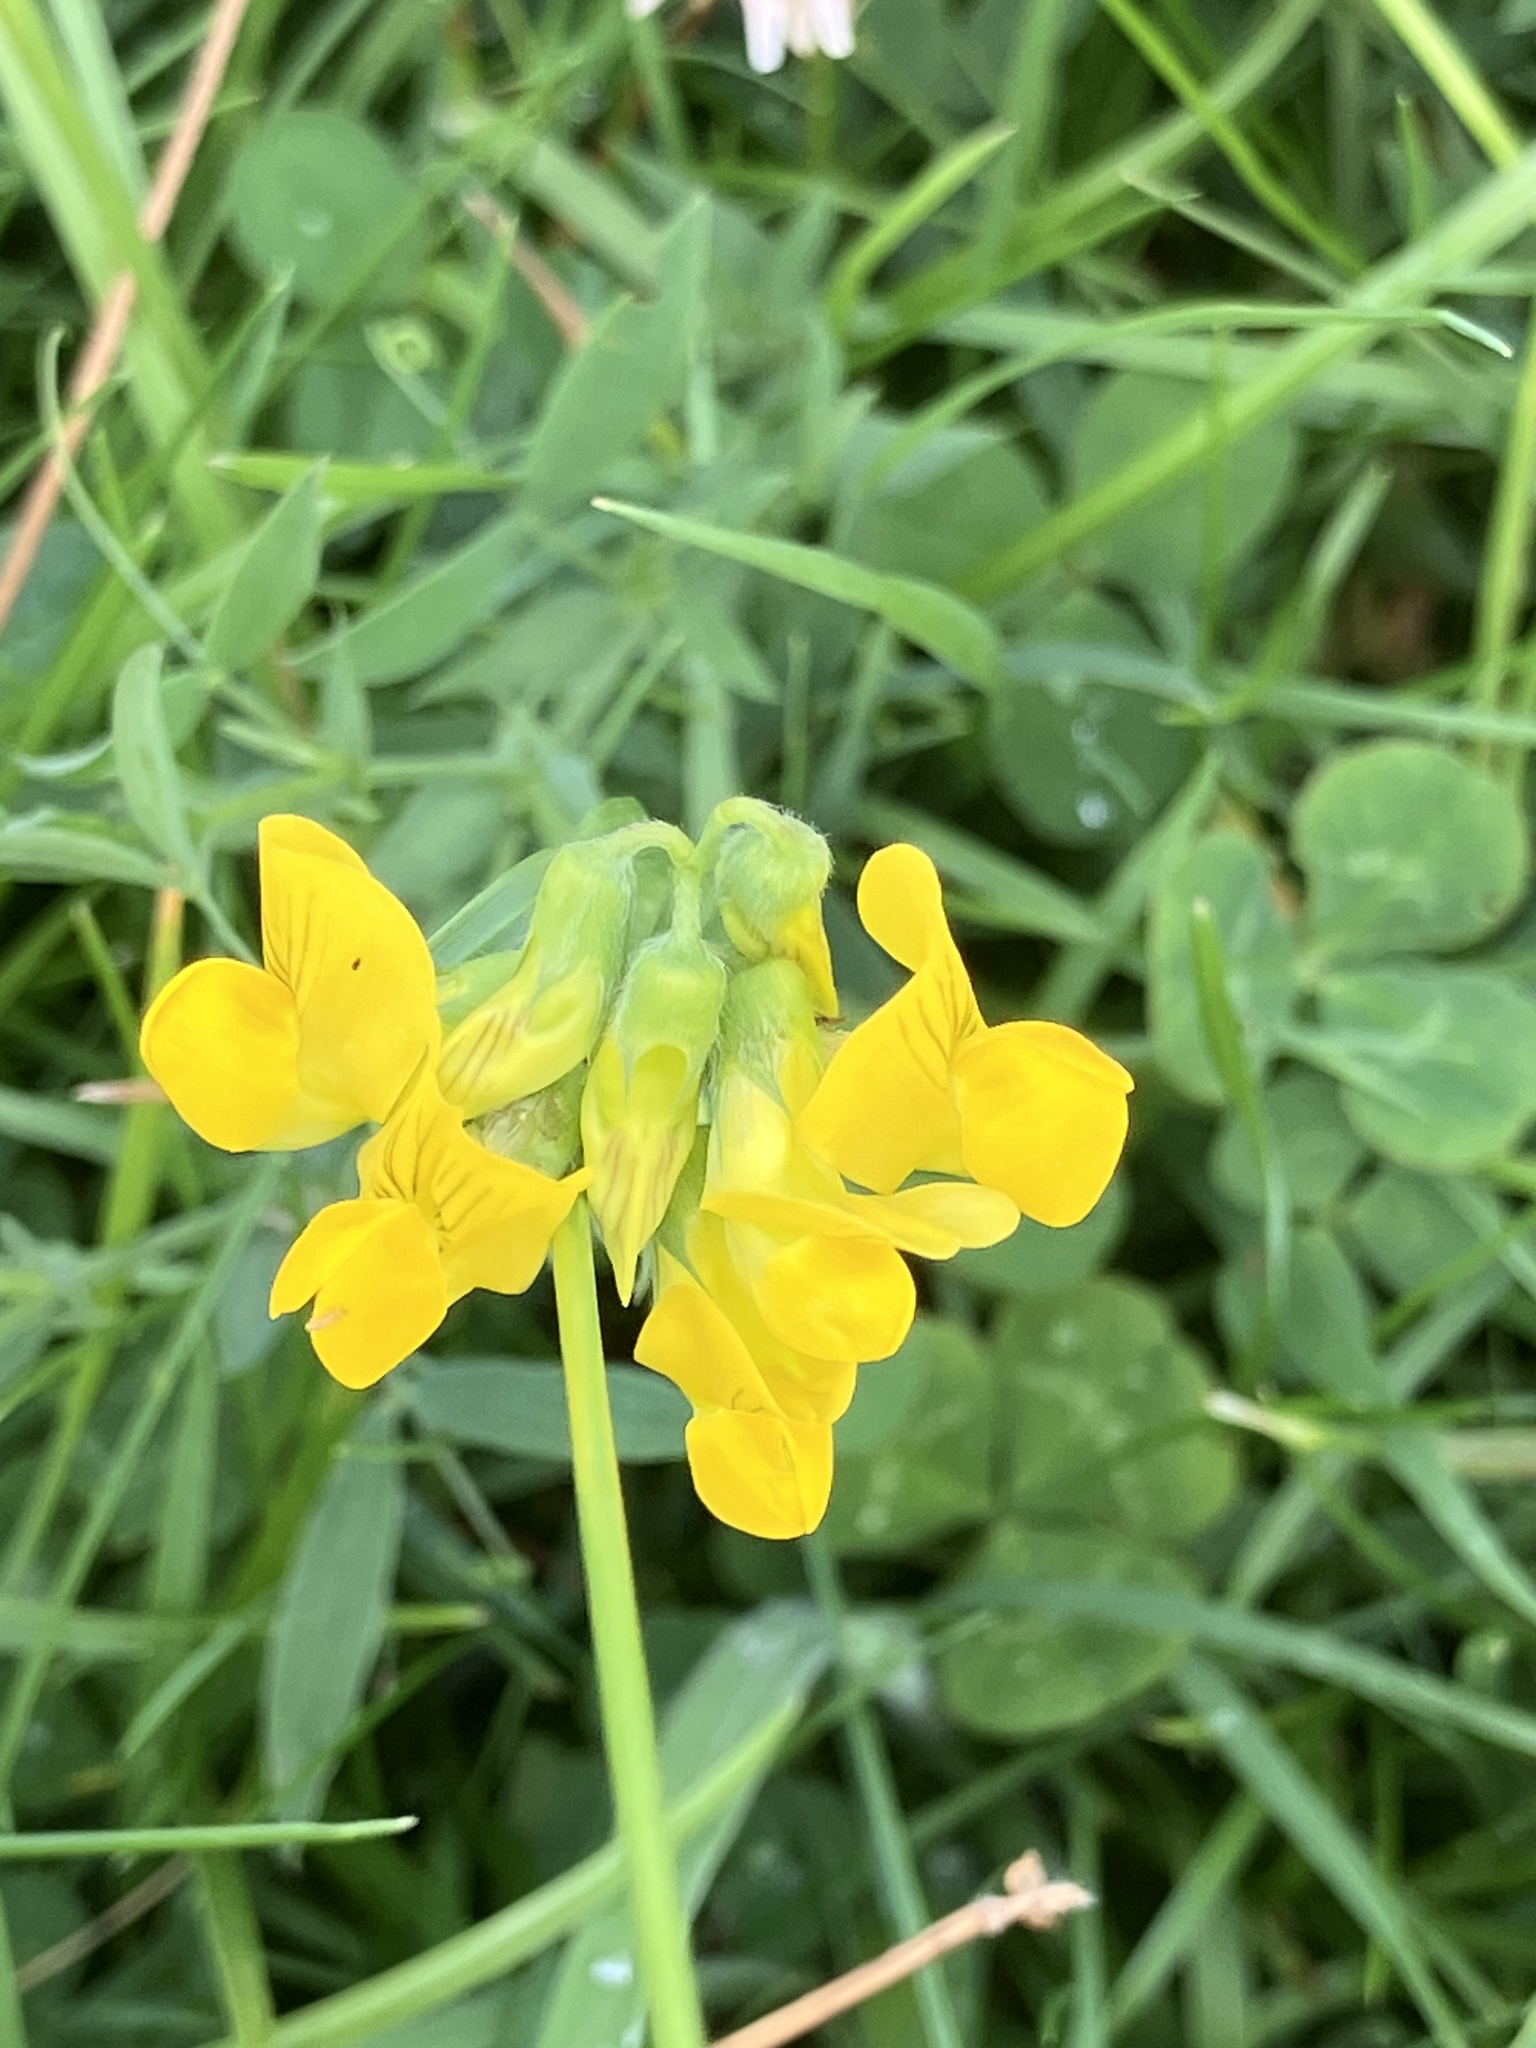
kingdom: Plantae
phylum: Tracheophyta
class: Magnoliopsida
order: Fabales
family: Fabaceae
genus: Lathyrus
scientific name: Lathyrus pratensis
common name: Meadow vetchling
